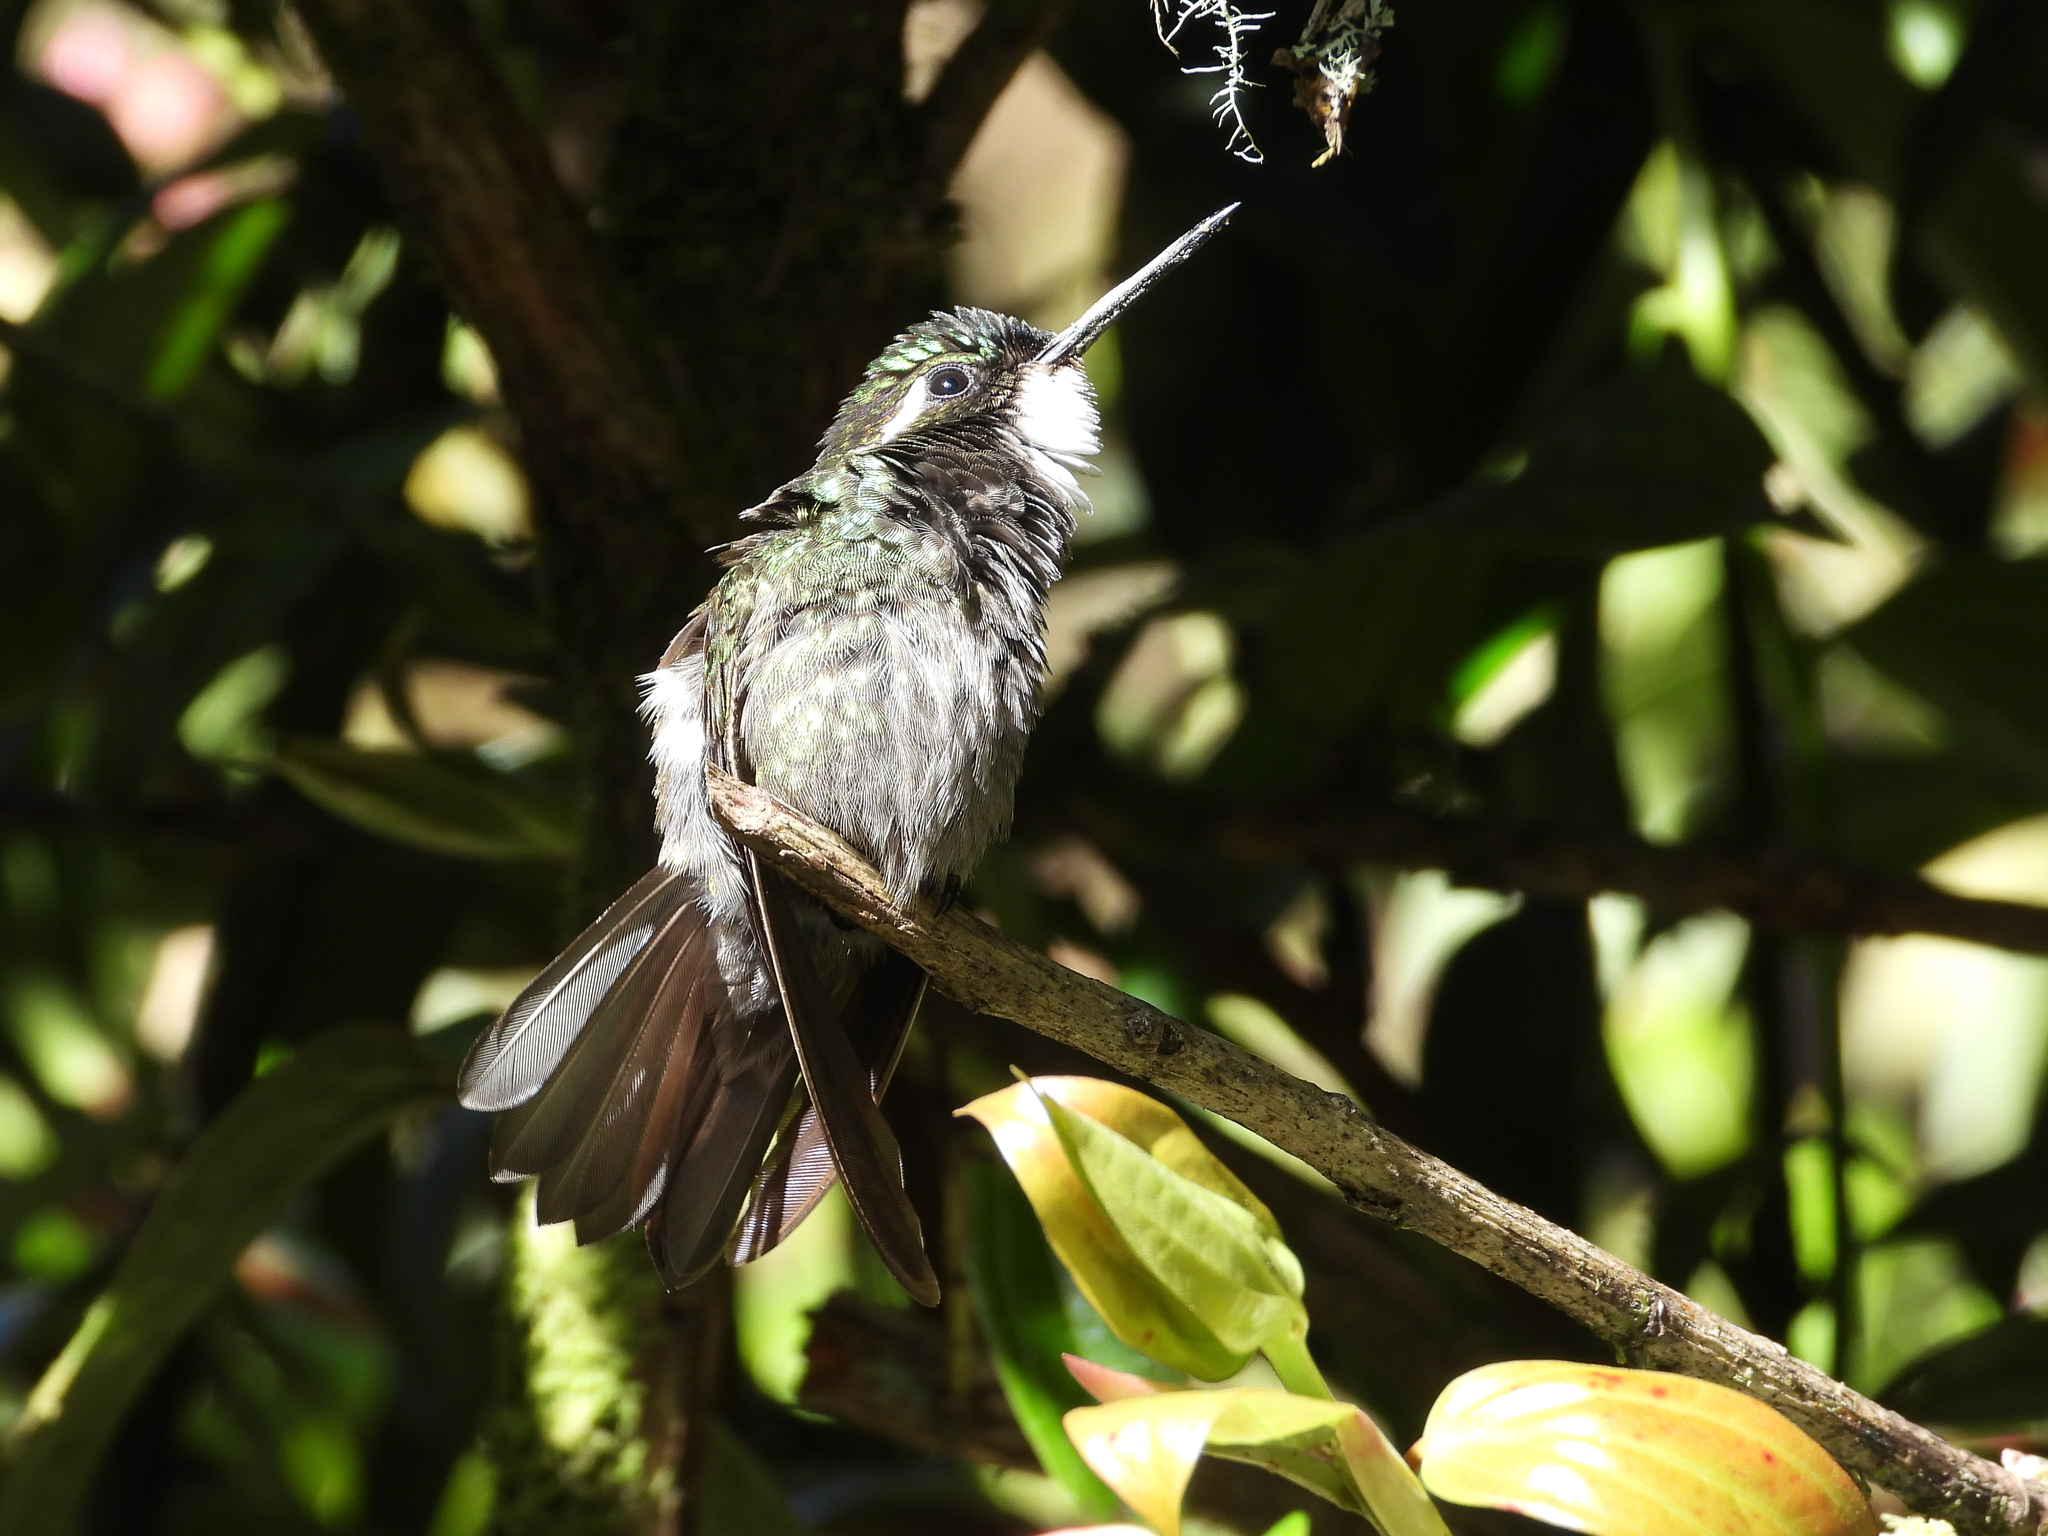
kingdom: Animalia
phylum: Chordata
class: Aves
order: Apodiformes
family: Trochilidae
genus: Lampornis
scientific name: Lampornis castaneoventris
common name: White-throated mountain-gem
